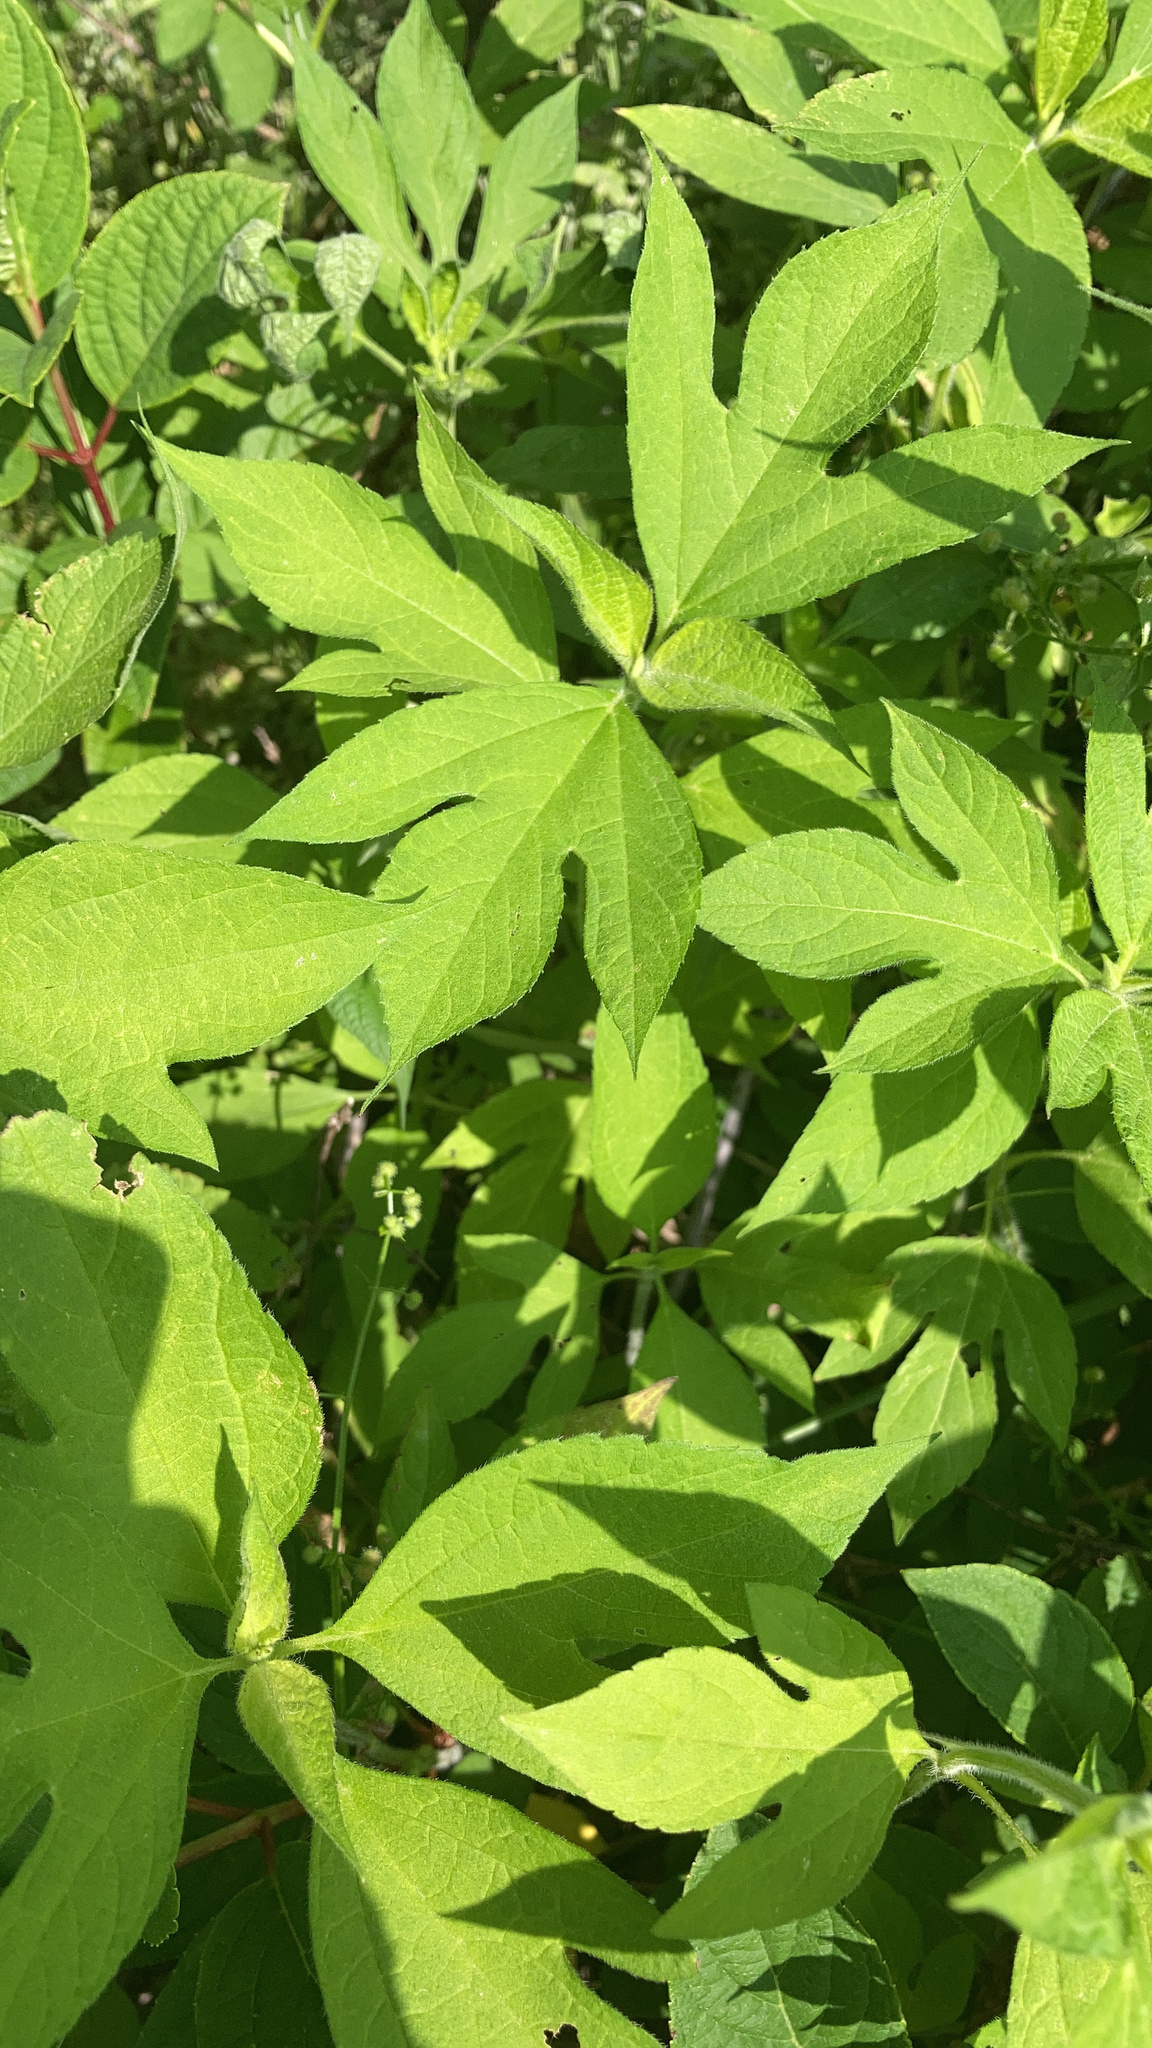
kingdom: Plantae
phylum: Tracheophyta
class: Magnoliopsida
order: Asterales
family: Asteraceae
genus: Ambrosia
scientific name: Ambrosia trifida
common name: Giant ragweed
